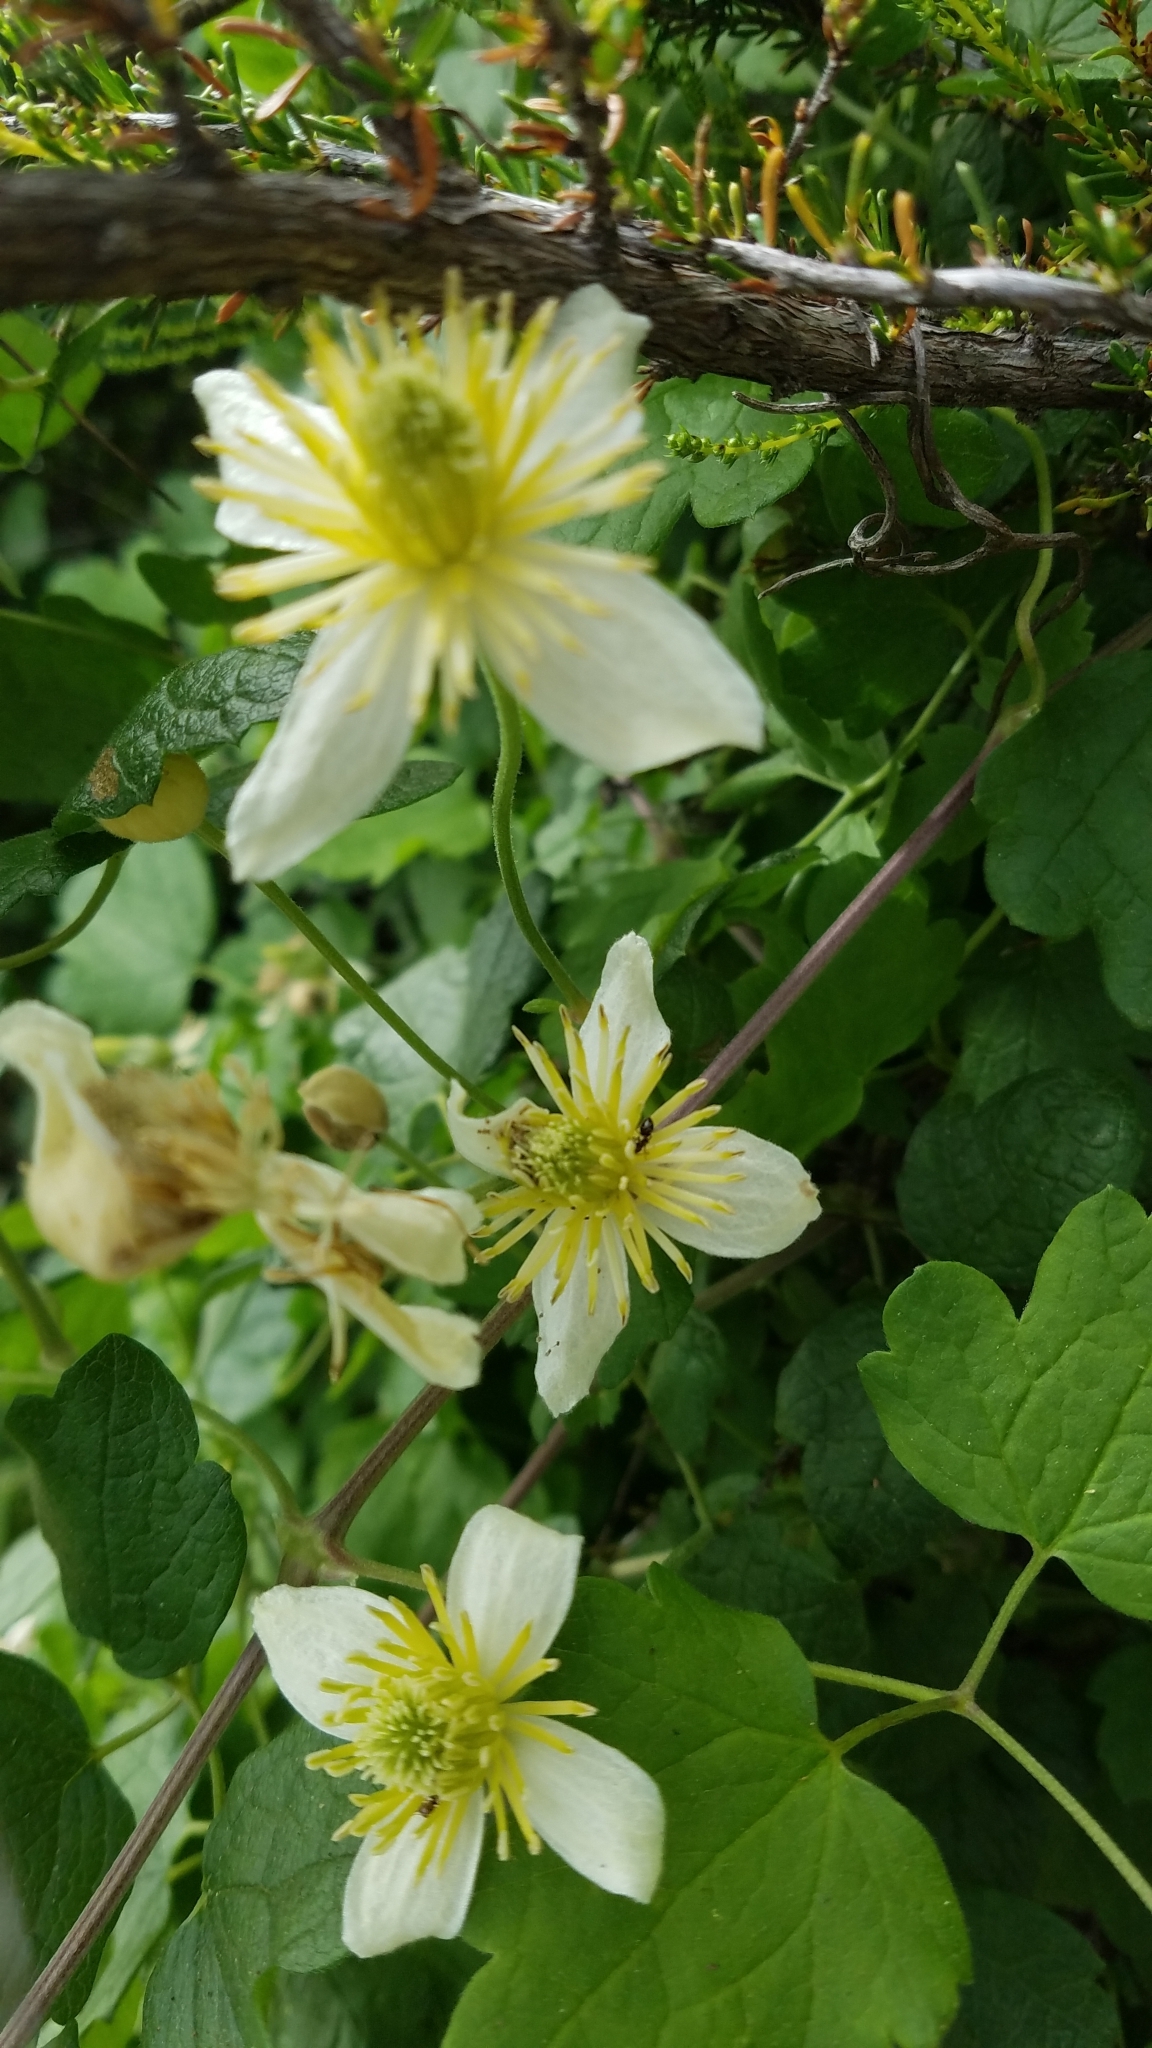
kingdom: Plantae
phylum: Tracheophyta
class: Magnoliopsida
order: Ranunculales
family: Ranunculaceae
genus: Clematis
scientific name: Clematis lasiantha
